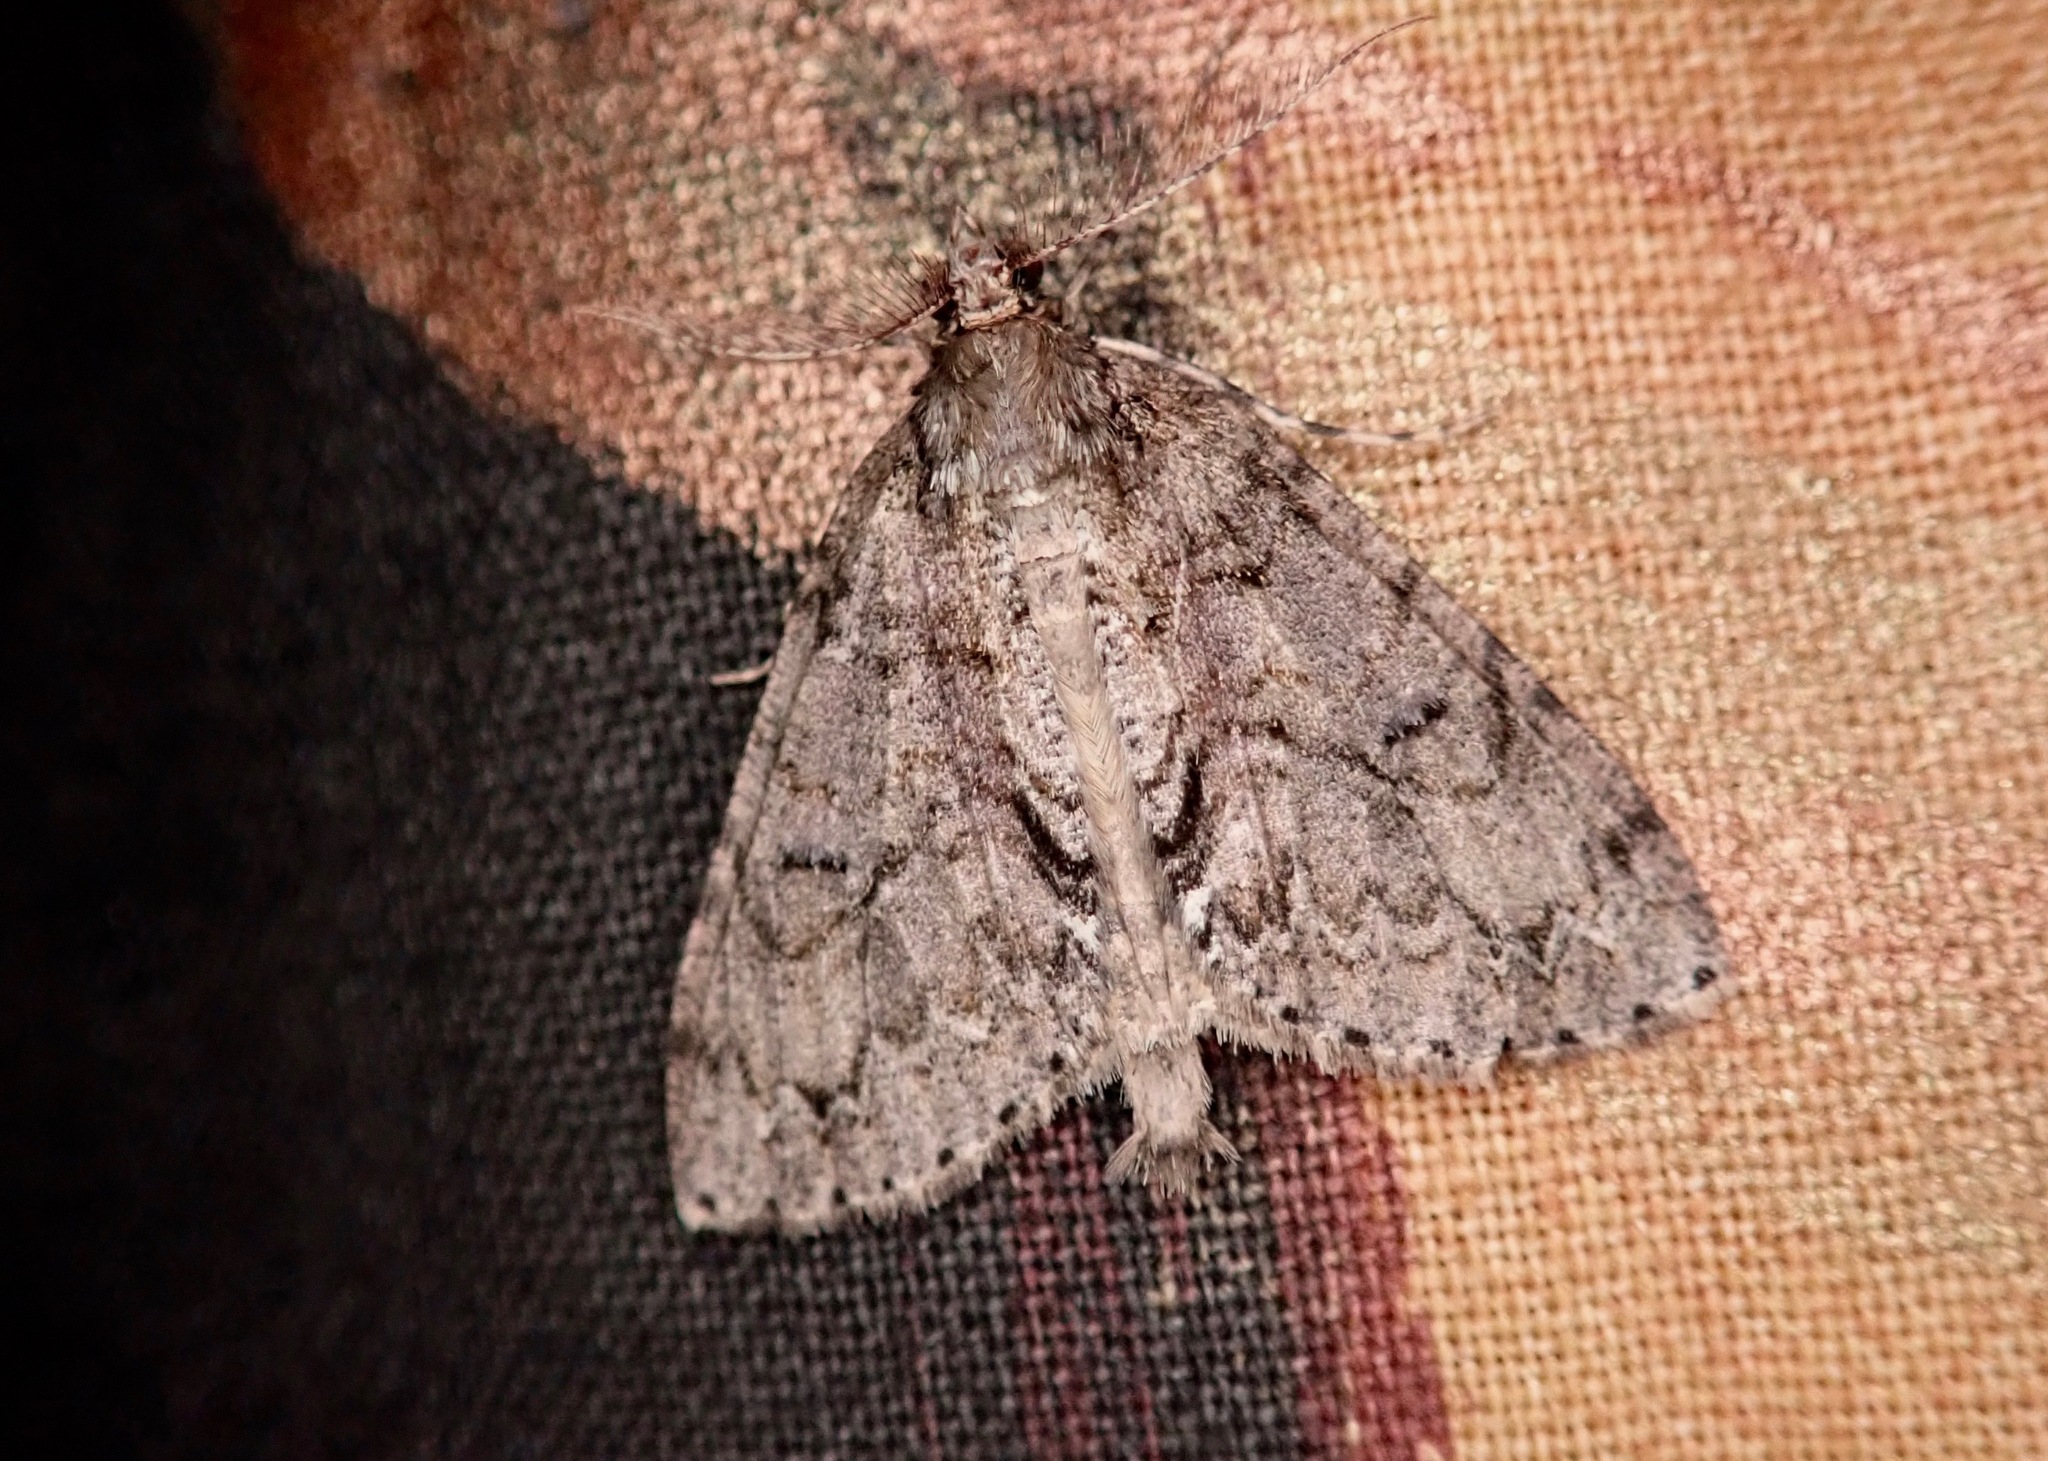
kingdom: Animalia
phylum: Arthropoda
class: Insecta
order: Lepidoptera
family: Geometridae
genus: Pseudocoremia
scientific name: Pseudocoremia suavis
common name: Common forest looper
